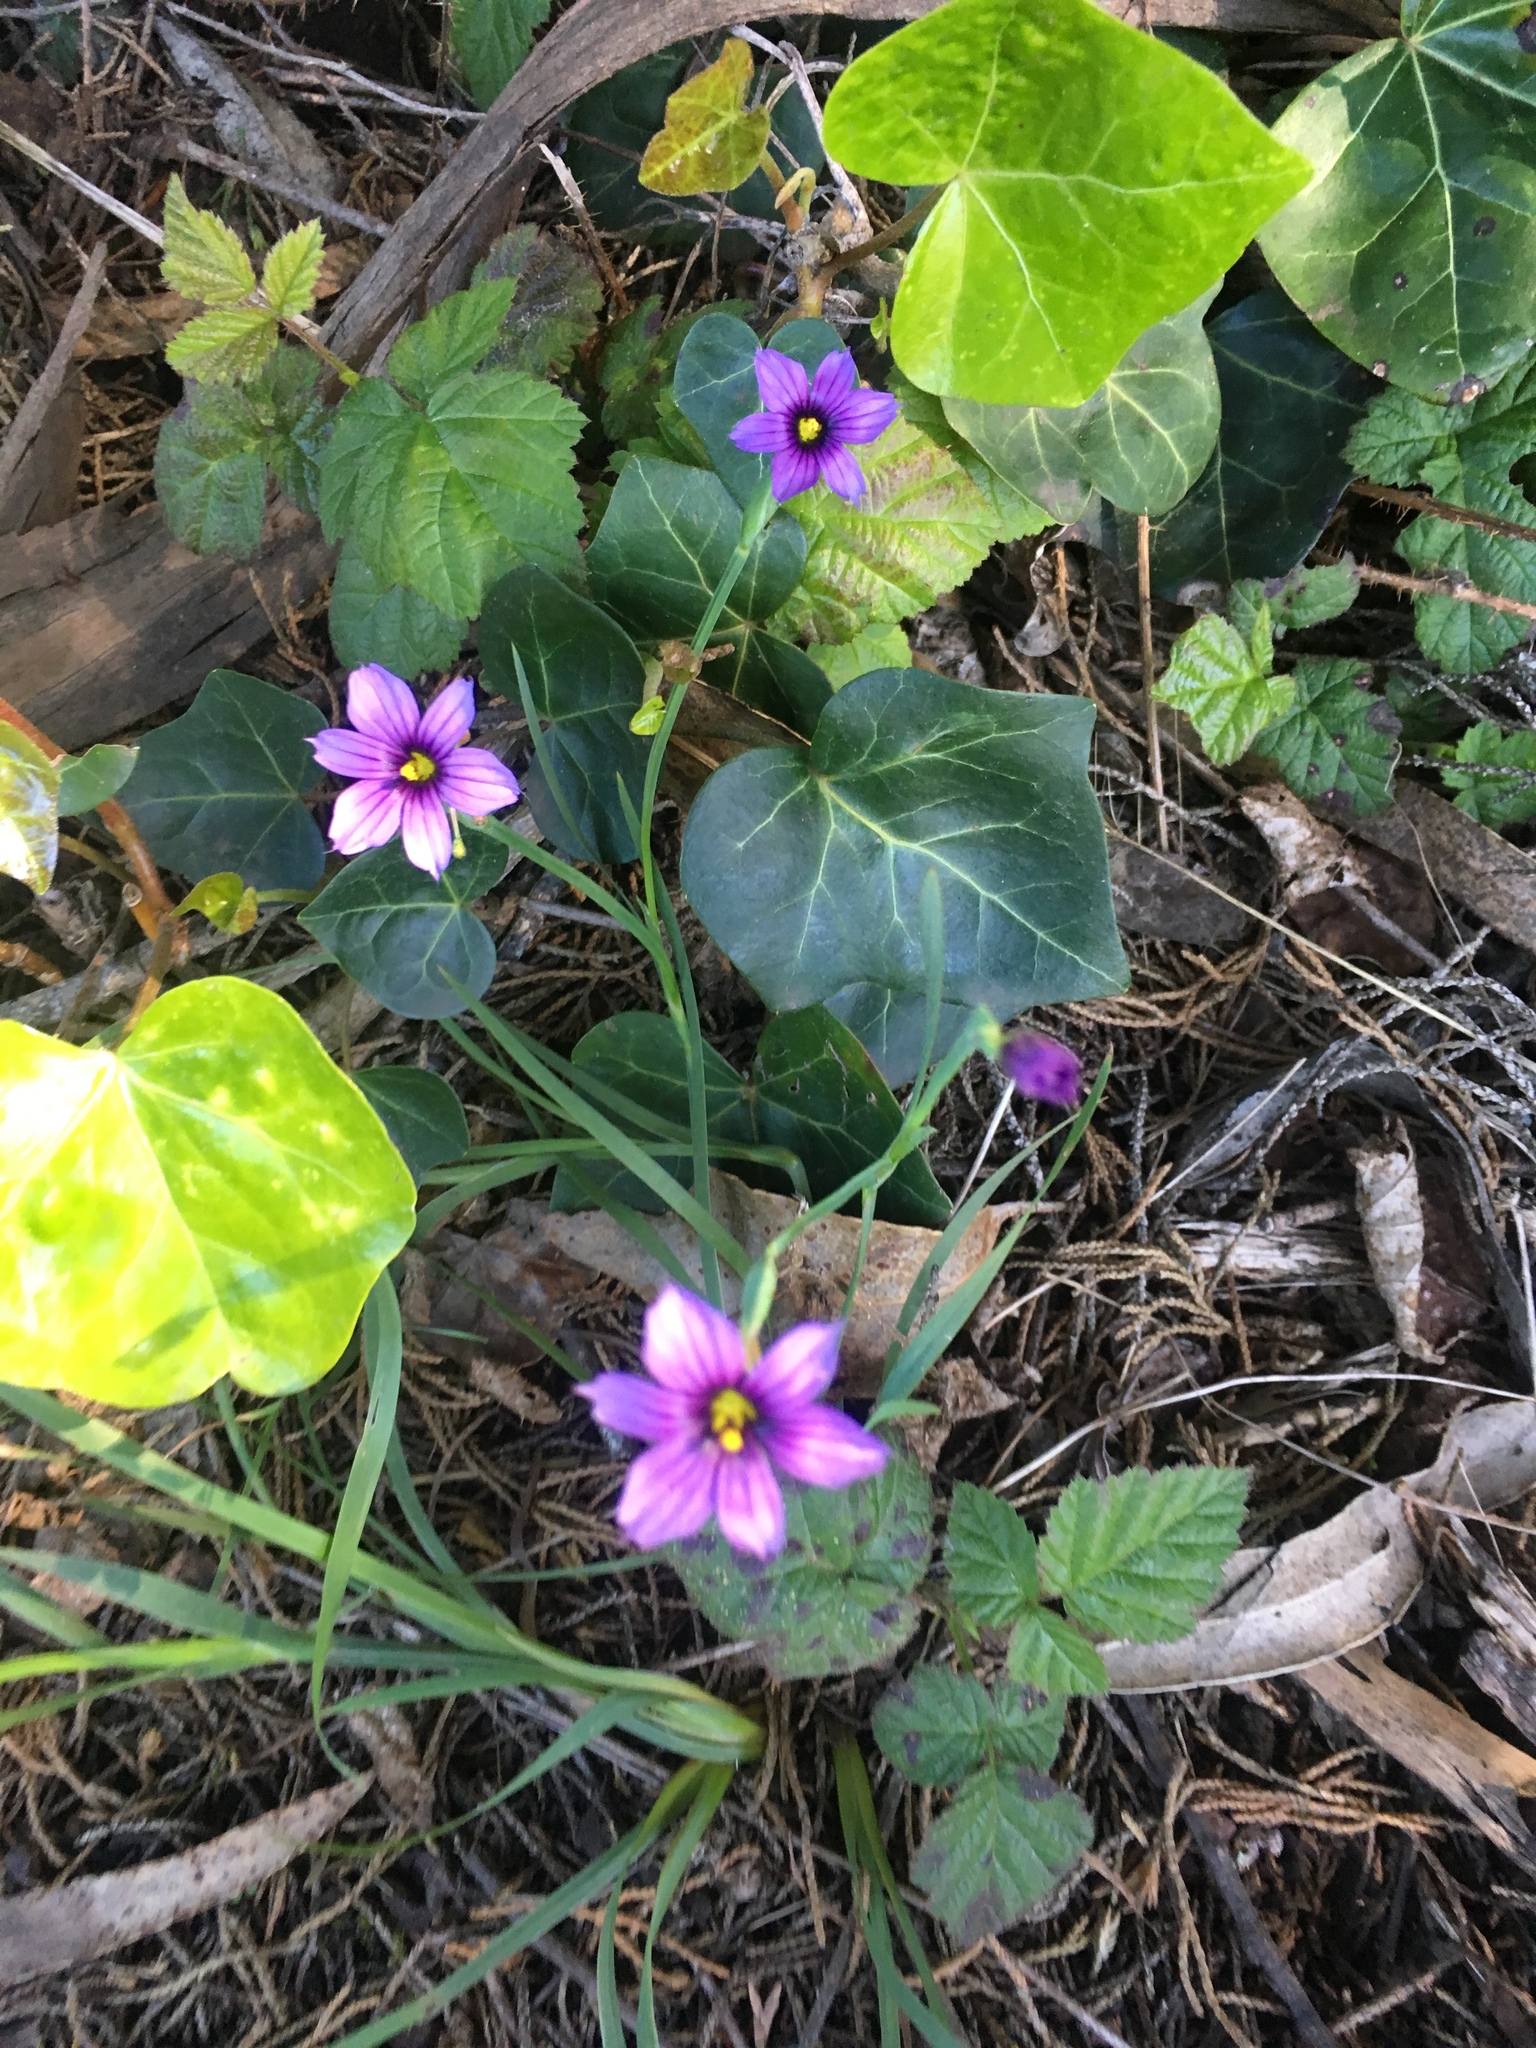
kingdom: Plantae
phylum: Tracheophyta
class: Liliopsida
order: Asparagales
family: Iridaceae
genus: Sisyrinchium
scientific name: Sisyrinchium bellum
